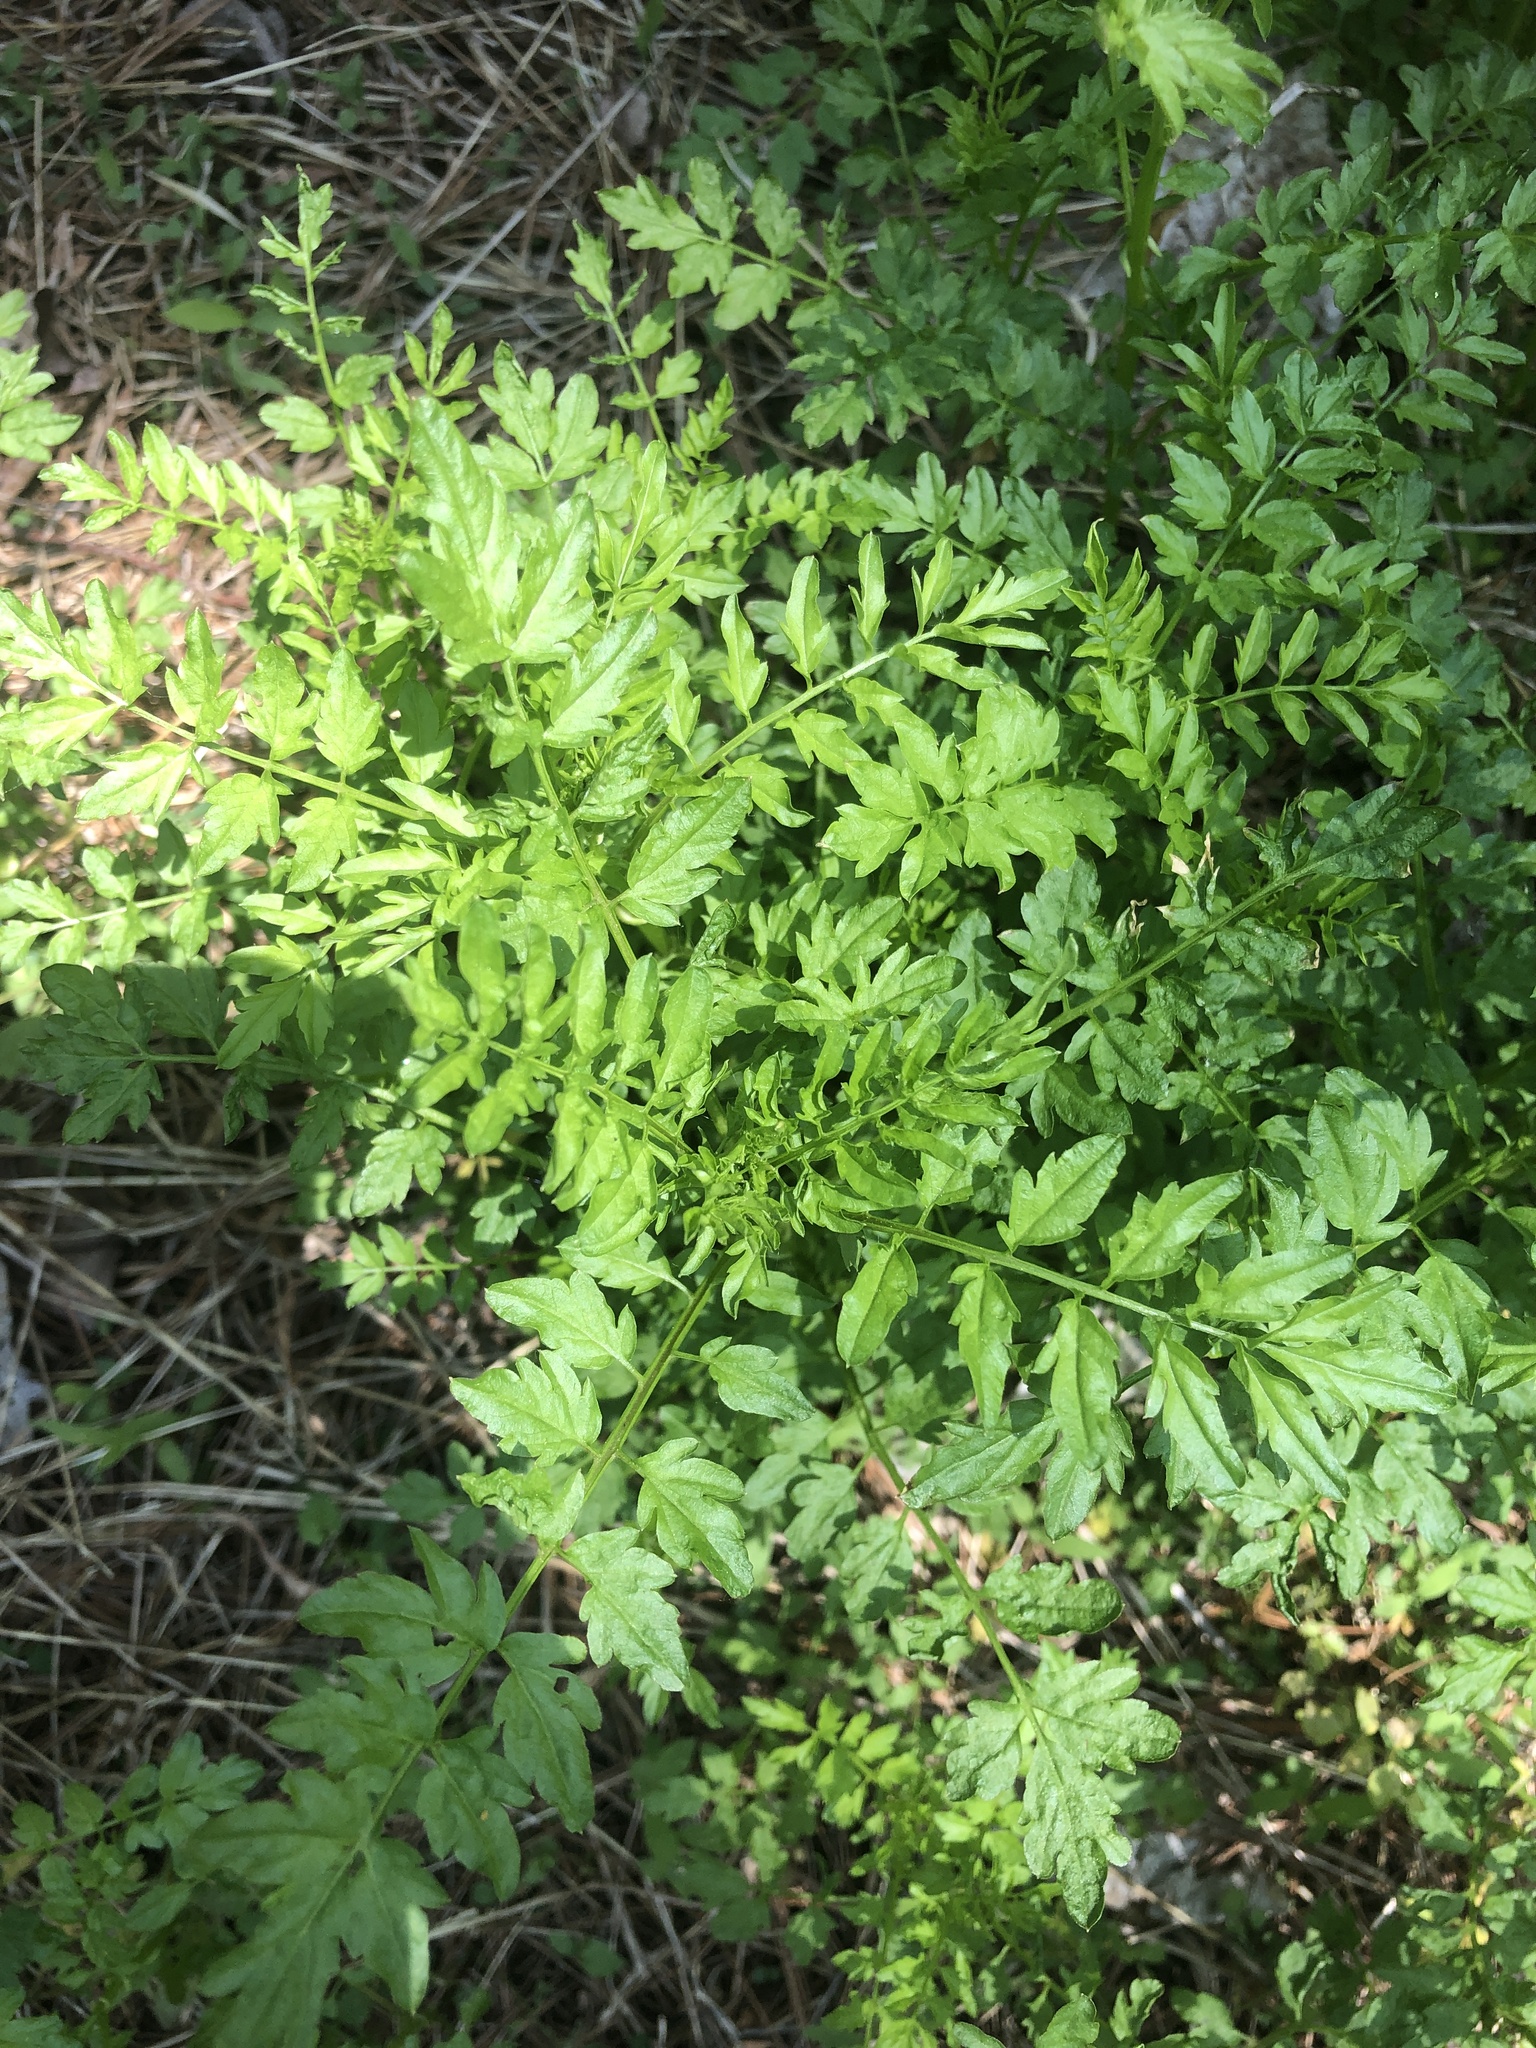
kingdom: Plantae
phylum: Tracheophyta
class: Magnoliopsida
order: Brassicales
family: Brassicaceae
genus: Cardamine
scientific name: Cardamine impatiens
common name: Narrow-leaved bitter-cress
